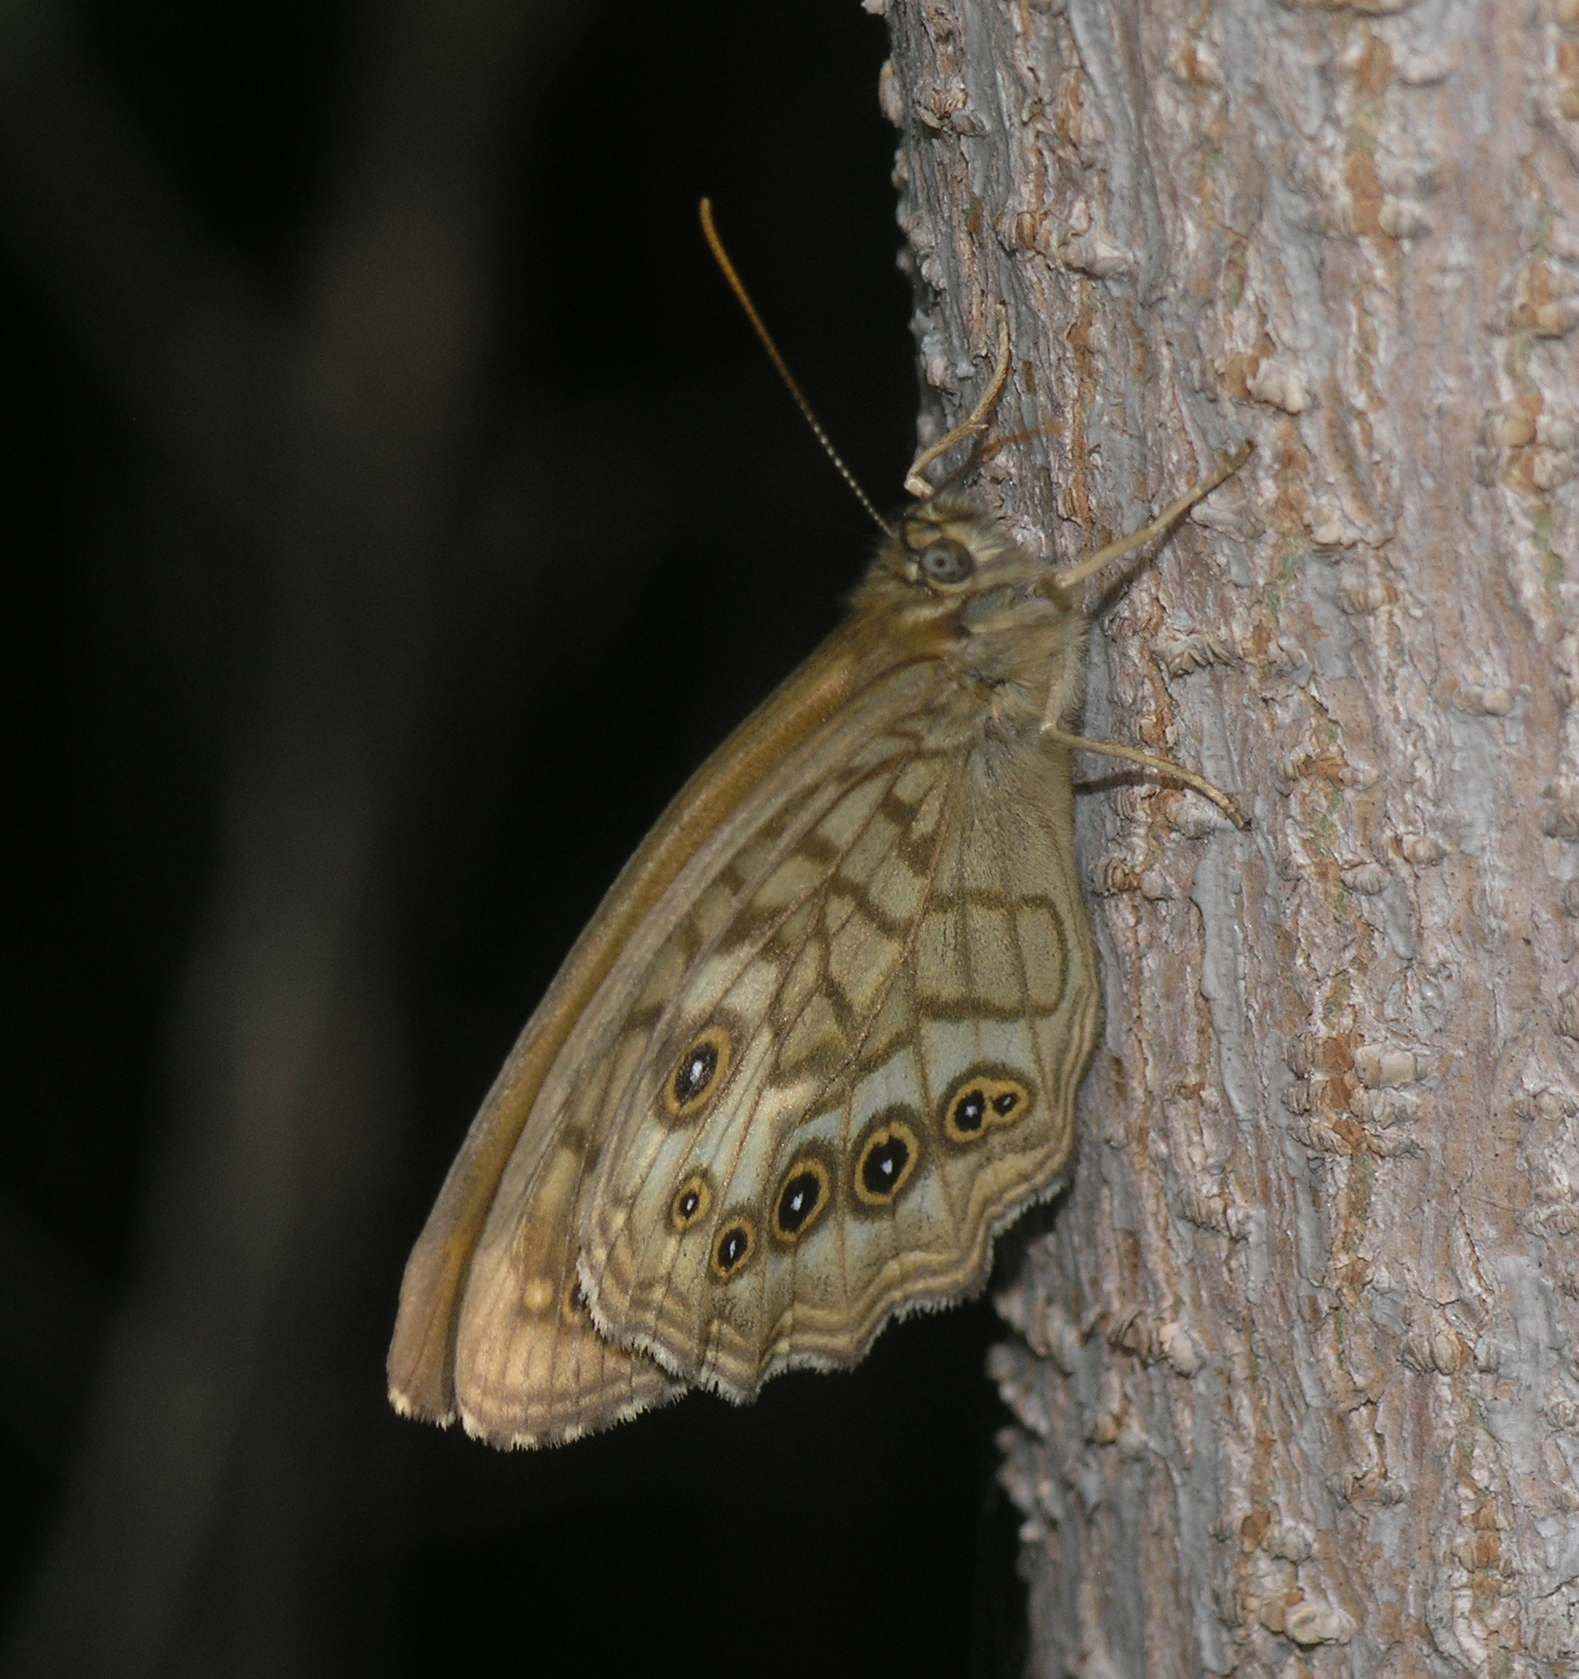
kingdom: Animalia
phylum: Arthropoda
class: Insecta
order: Lepidoptera
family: Nymphalidae
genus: Kirinia
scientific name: Kirinia
